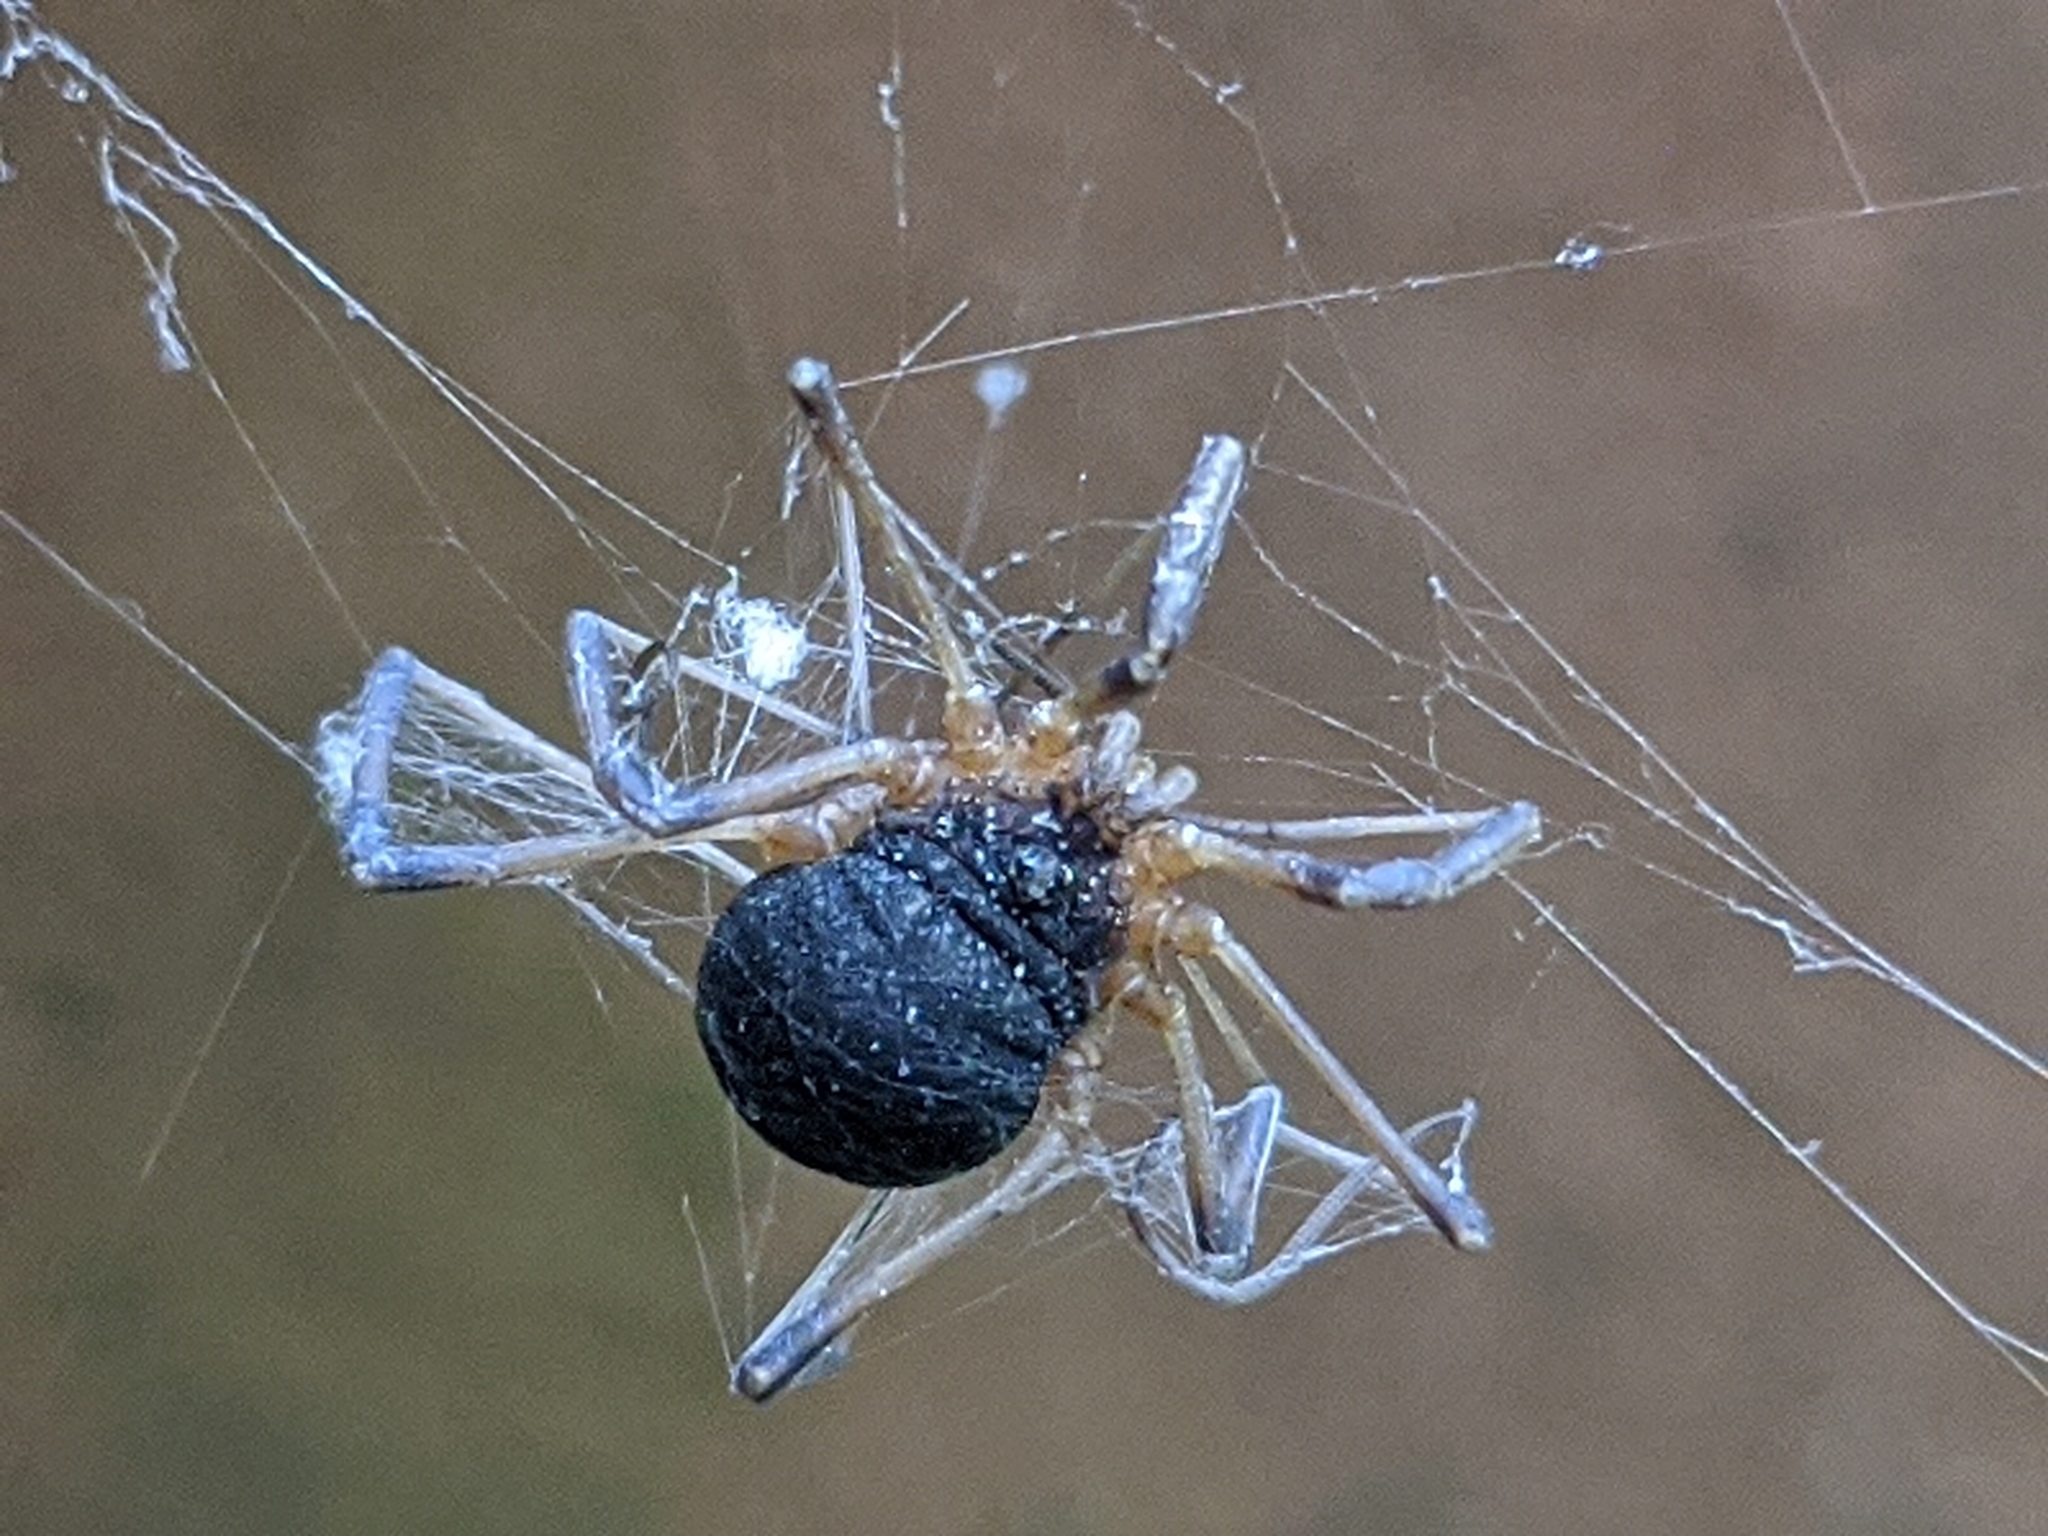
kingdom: Animalia
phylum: Arthropoda
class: Arachnida
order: Opiliones
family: Sclerosomatidae
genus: Eumesosoma
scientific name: Eumesosoma roeweri
